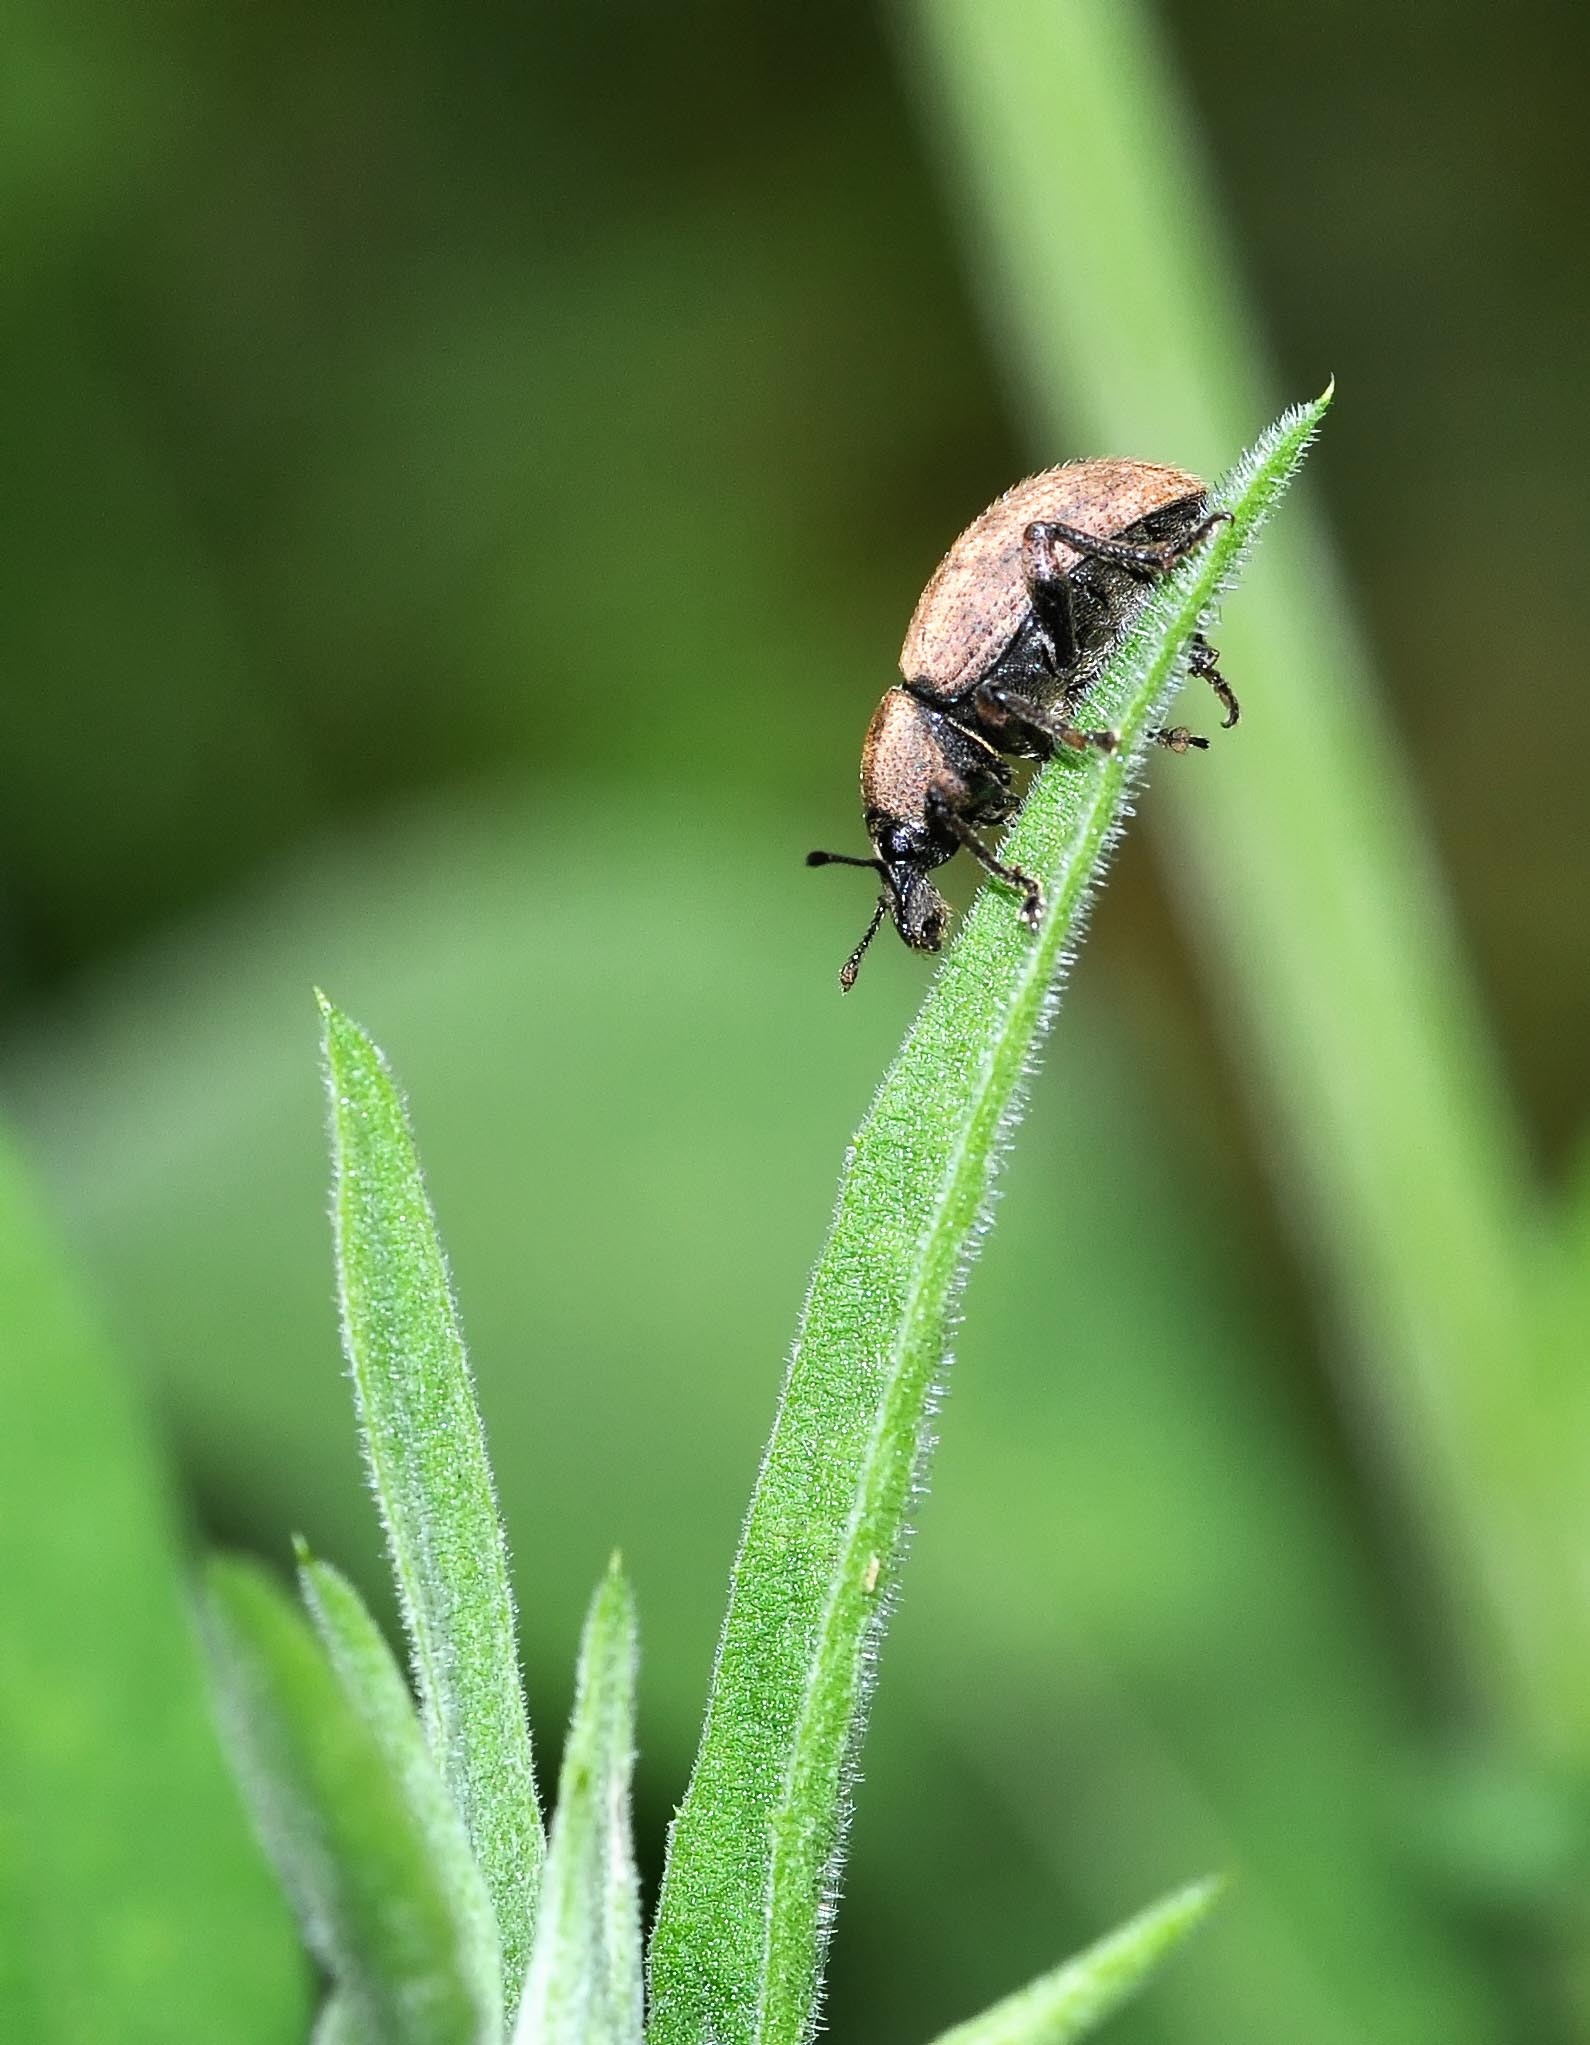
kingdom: Animalia
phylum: Arthropoda
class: Insecta
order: Coleoptera
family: Curculionidae
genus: Barynotus
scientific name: Barynotus obscurus
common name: Weevil
